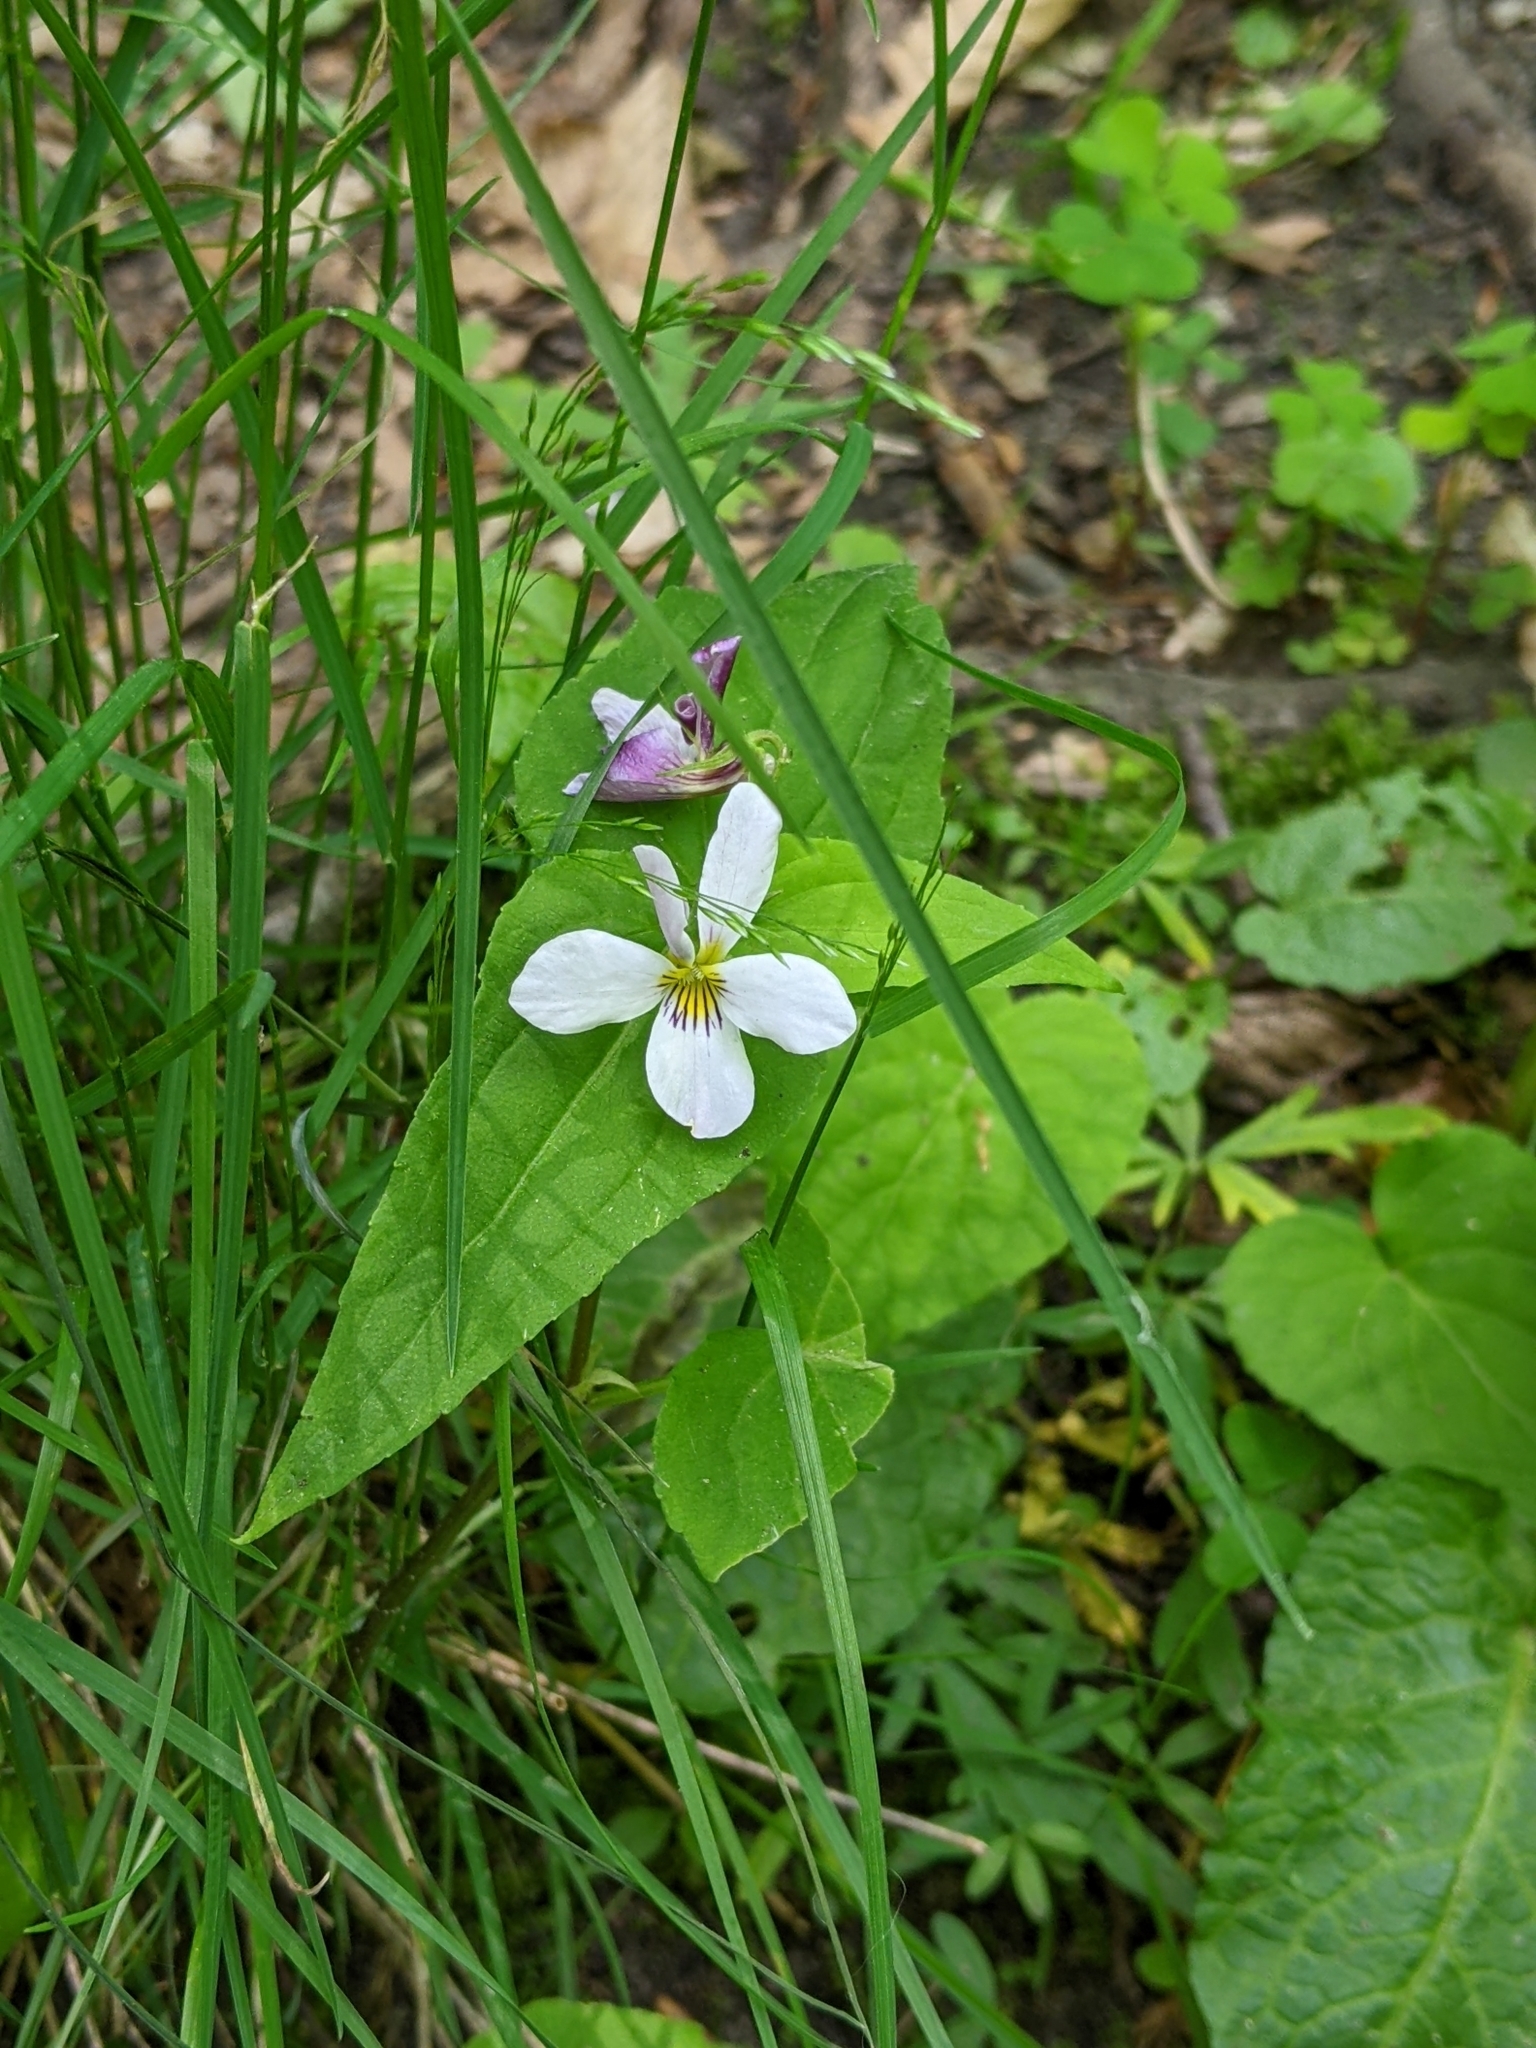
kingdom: Plantae
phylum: Tracheophyta
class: Magnoliopsida
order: Malpighiales
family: Violaceae
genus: Viola
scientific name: Viola canadensis
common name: Canada violet
